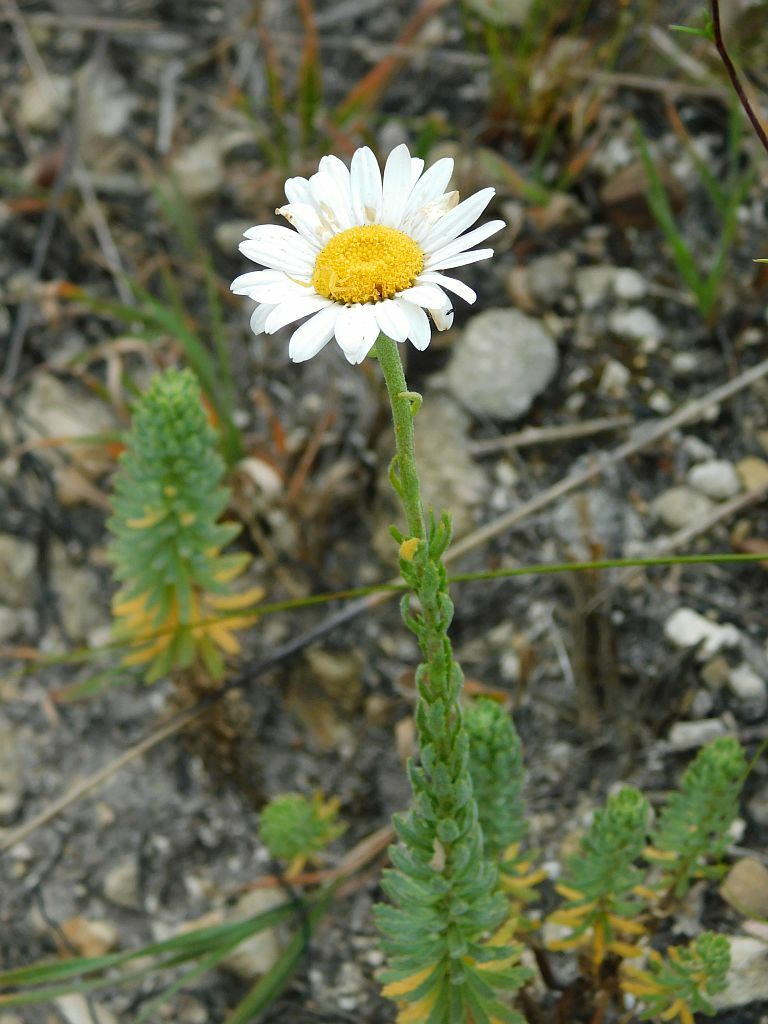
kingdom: Plantae
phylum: Tracheophyta
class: Magnoliopsida
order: Asterales
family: Asteraceae
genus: Osmitopsis
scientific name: Osmitopsis afra
